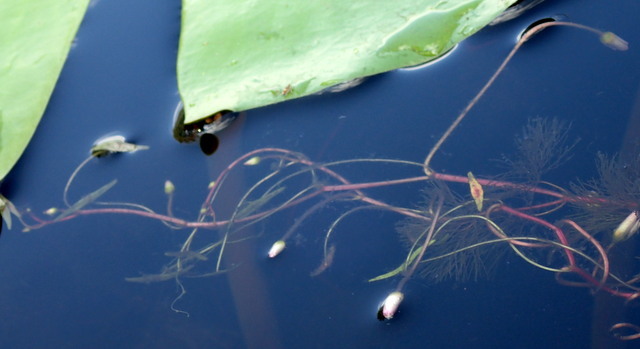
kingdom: Plantae
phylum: Tracheophyta
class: Magnoliopsida
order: Nymphaeales
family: Cabombaceae
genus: Cabomba
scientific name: Cabomba caroliniana
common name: Fanwort
